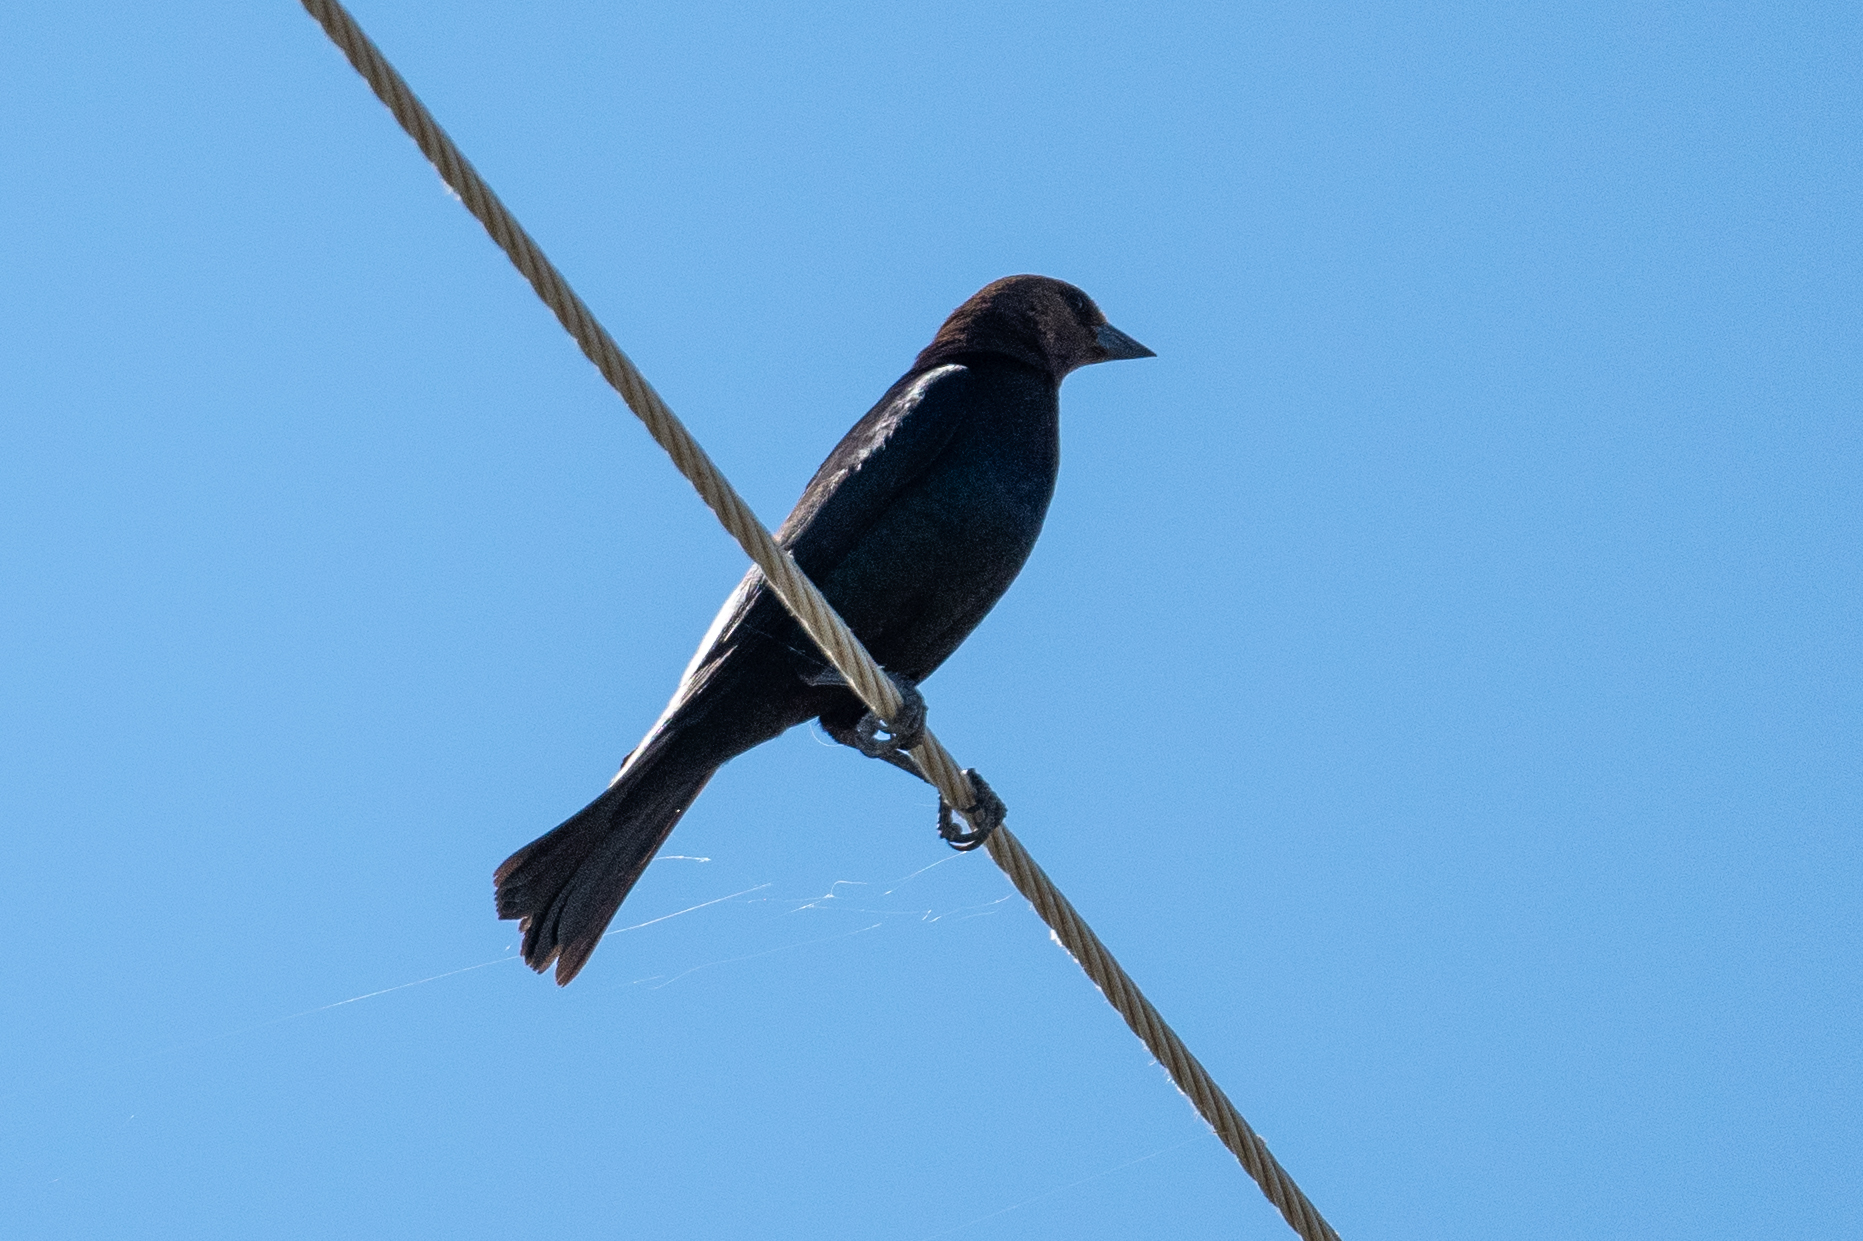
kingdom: Animalia
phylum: Chordata
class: Aves
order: Passeriformes
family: Icteridae
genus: Molothrus
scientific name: Molothrus ater
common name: Brown-headed cowbird
